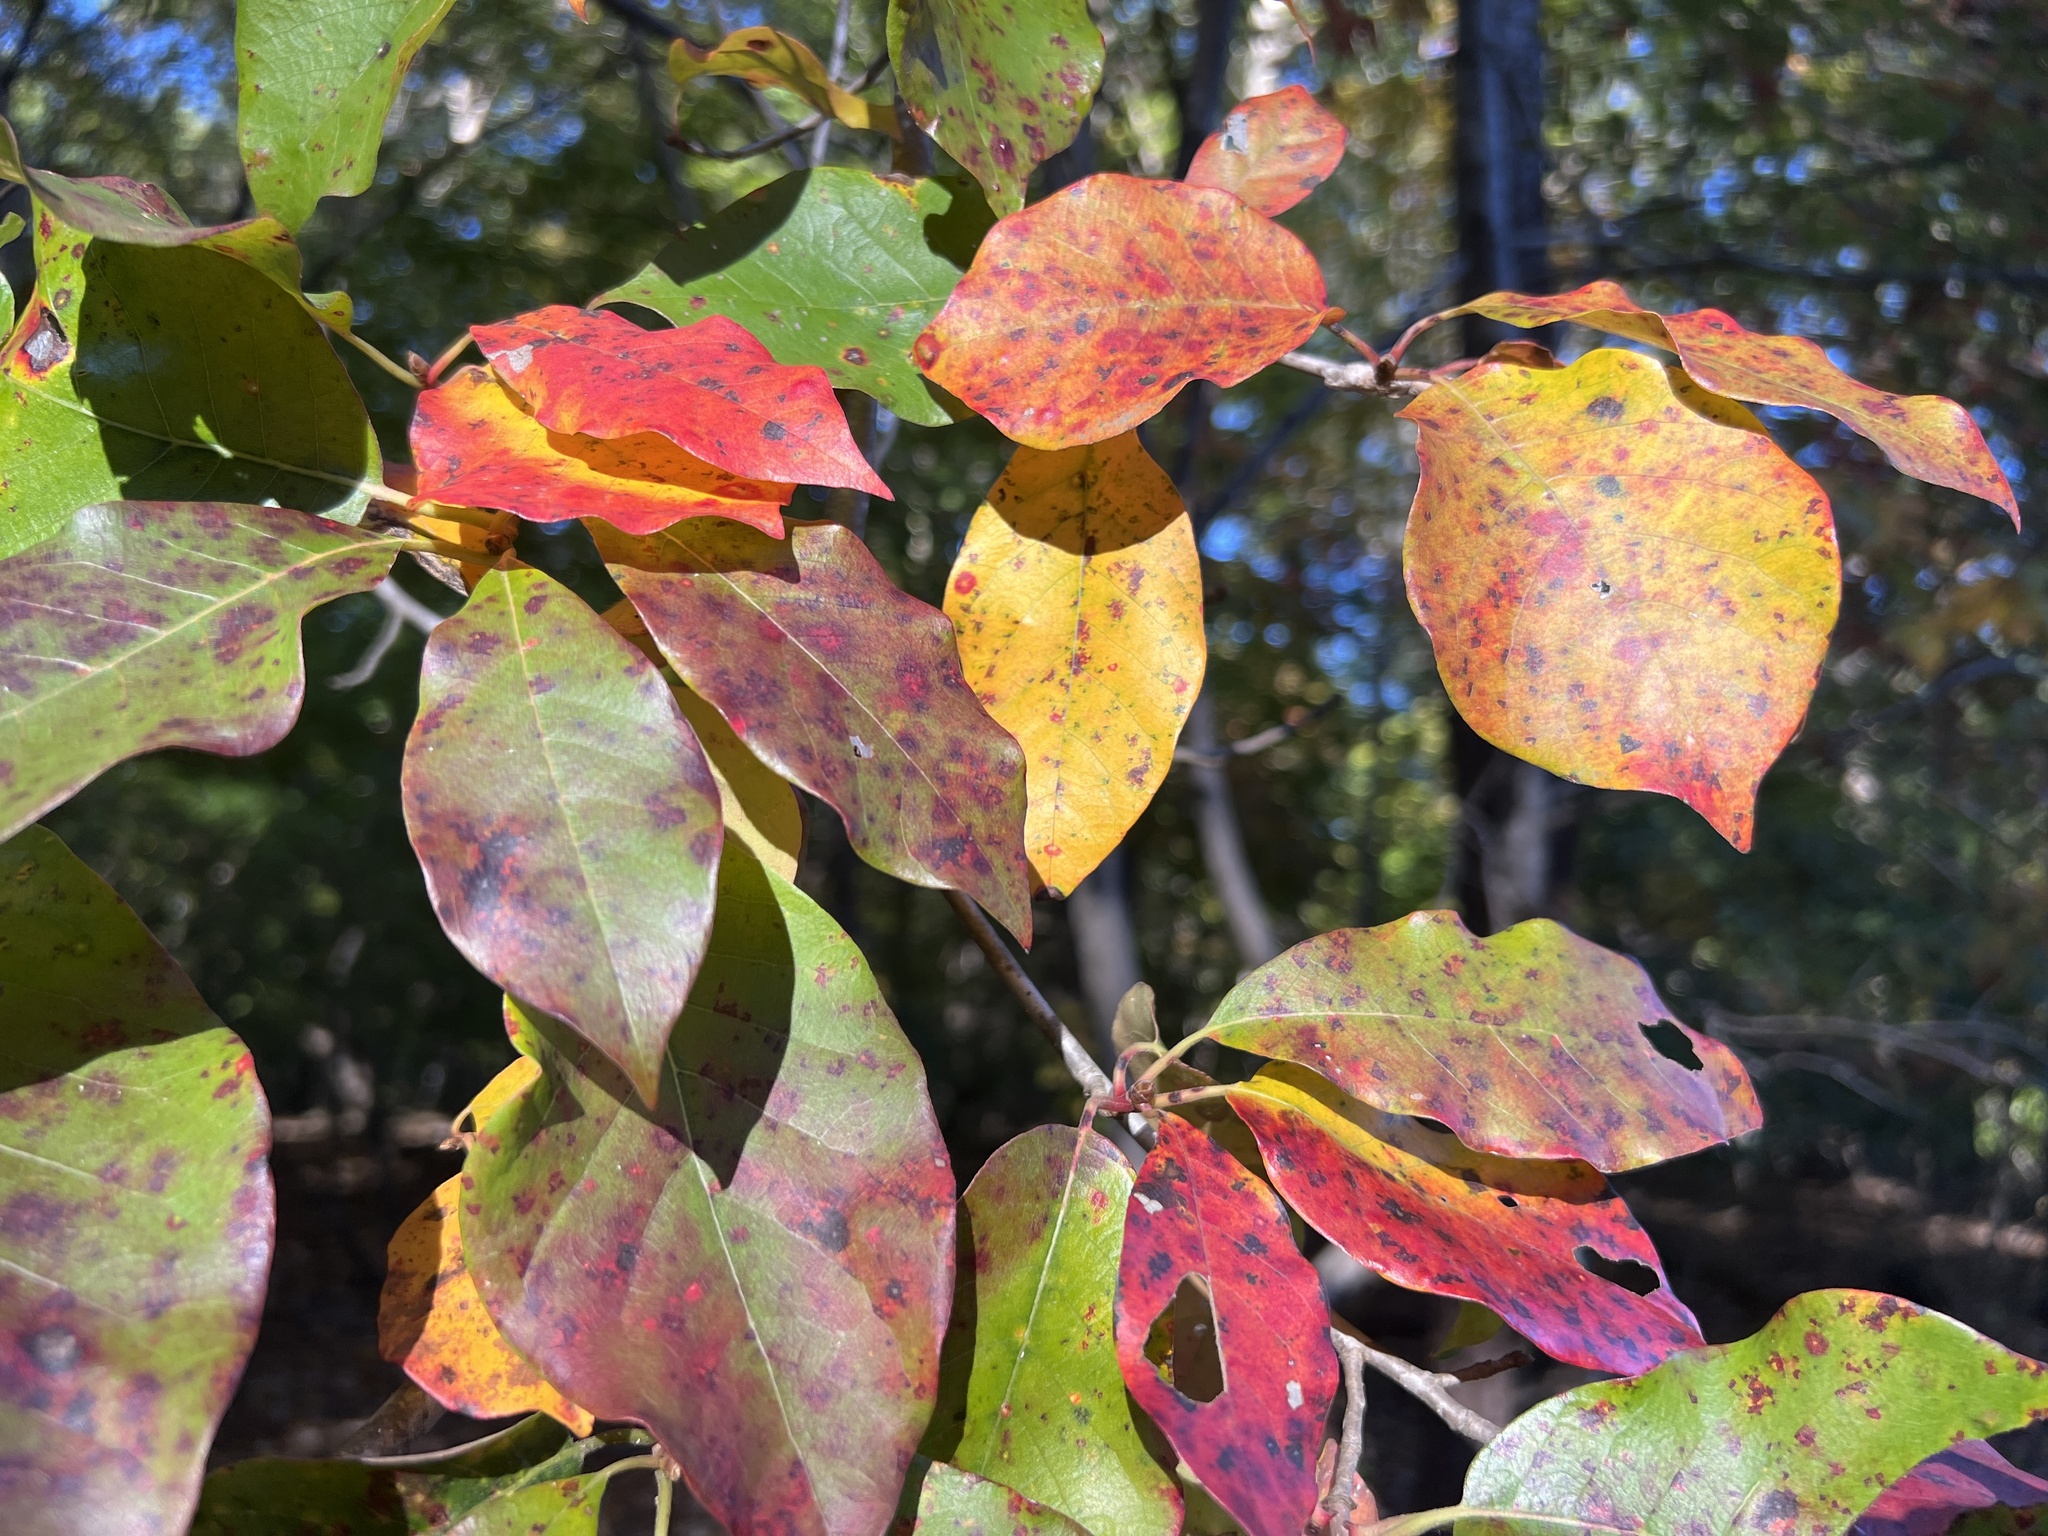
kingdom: Plantae
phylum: Tracheophyta
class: Magnoliopsida
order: Cornales
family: Nyssaceae
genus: Nyssa
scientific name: Nyssa sylvatica
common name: Black tupelo
